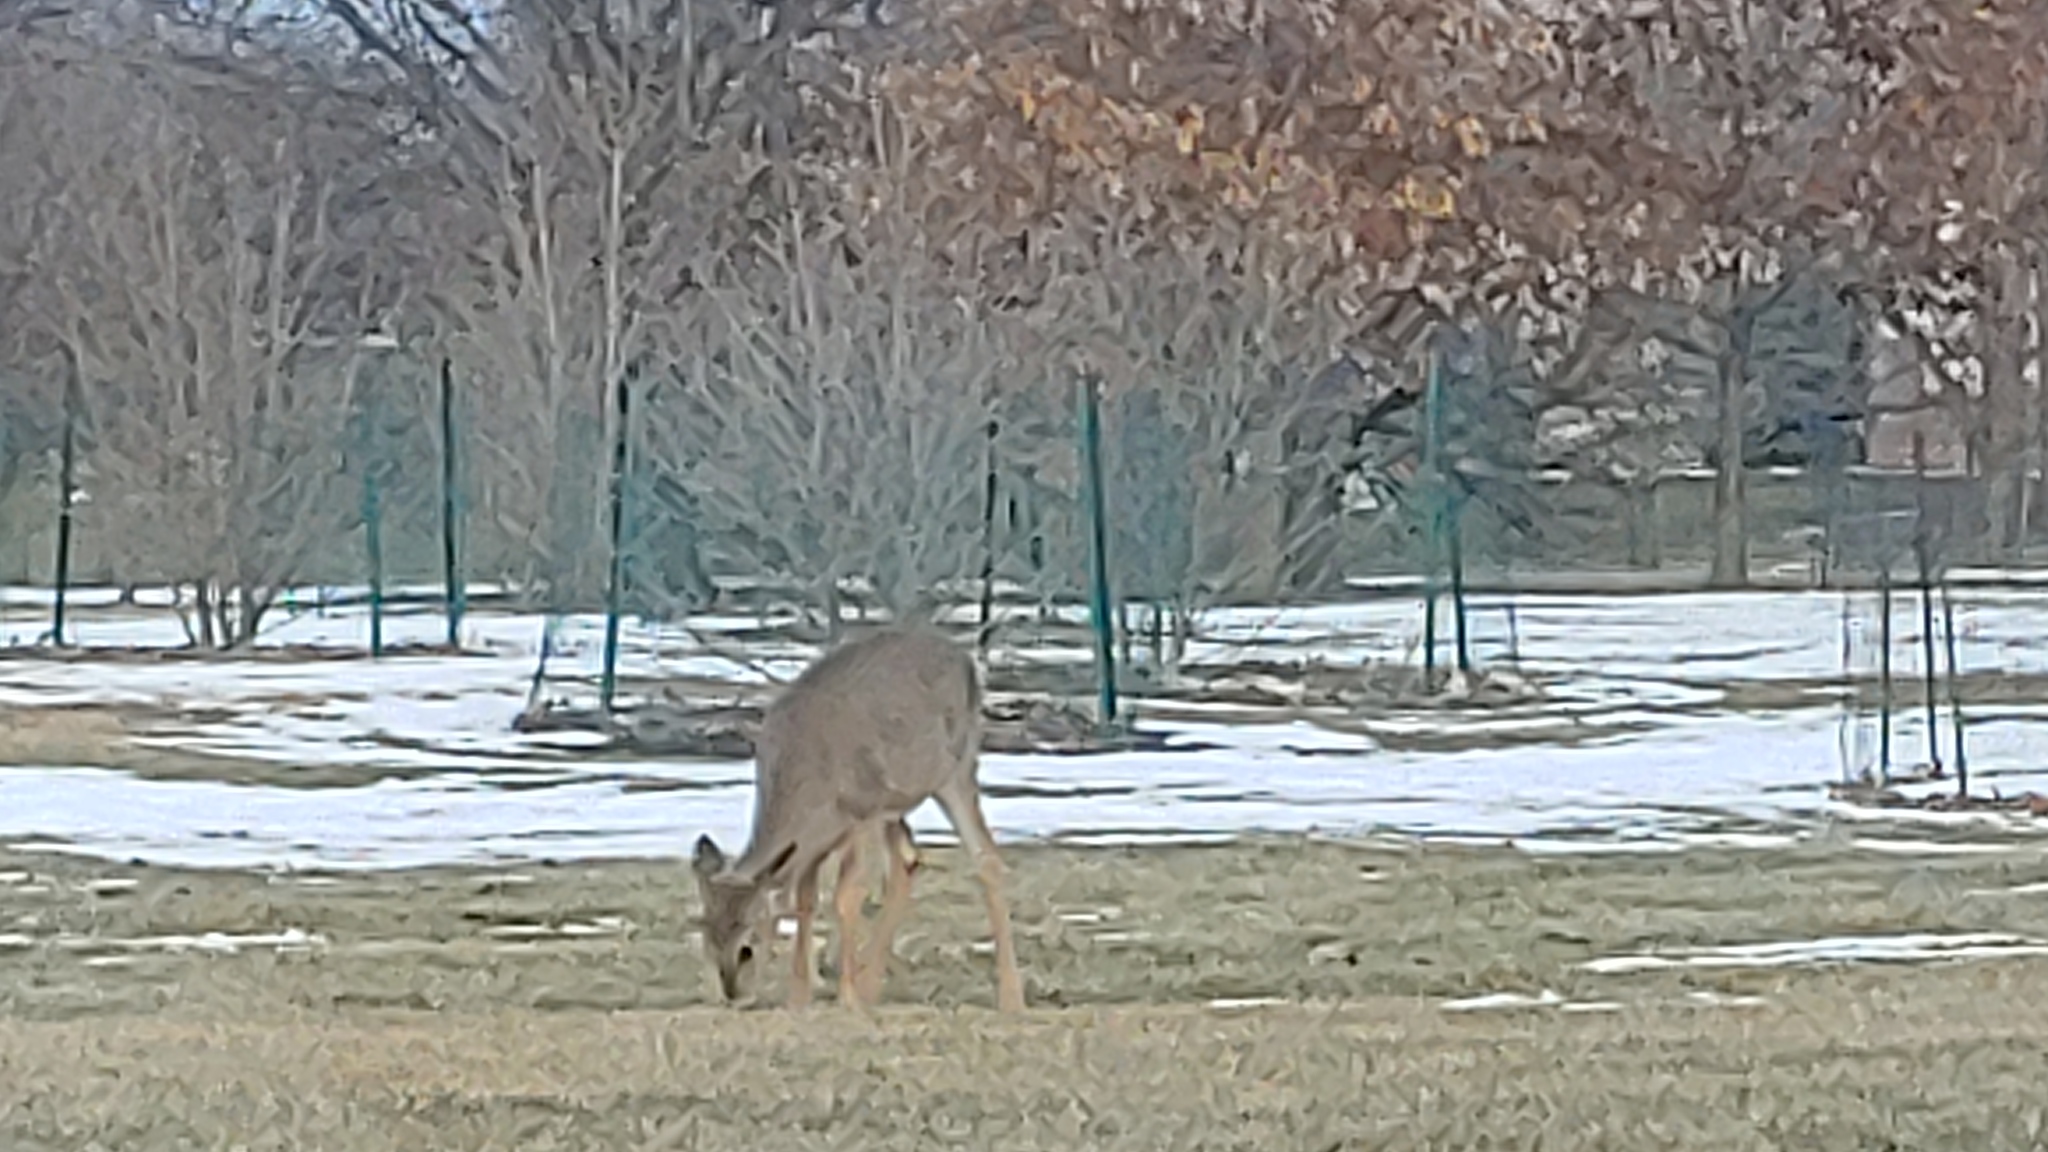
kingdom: Animalia
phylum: Chordata
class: Mammalia
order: Artiodactyla
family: Cervidae
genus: Odocoileus
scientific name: Odocoileus virginianus
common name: White-tailed deer
